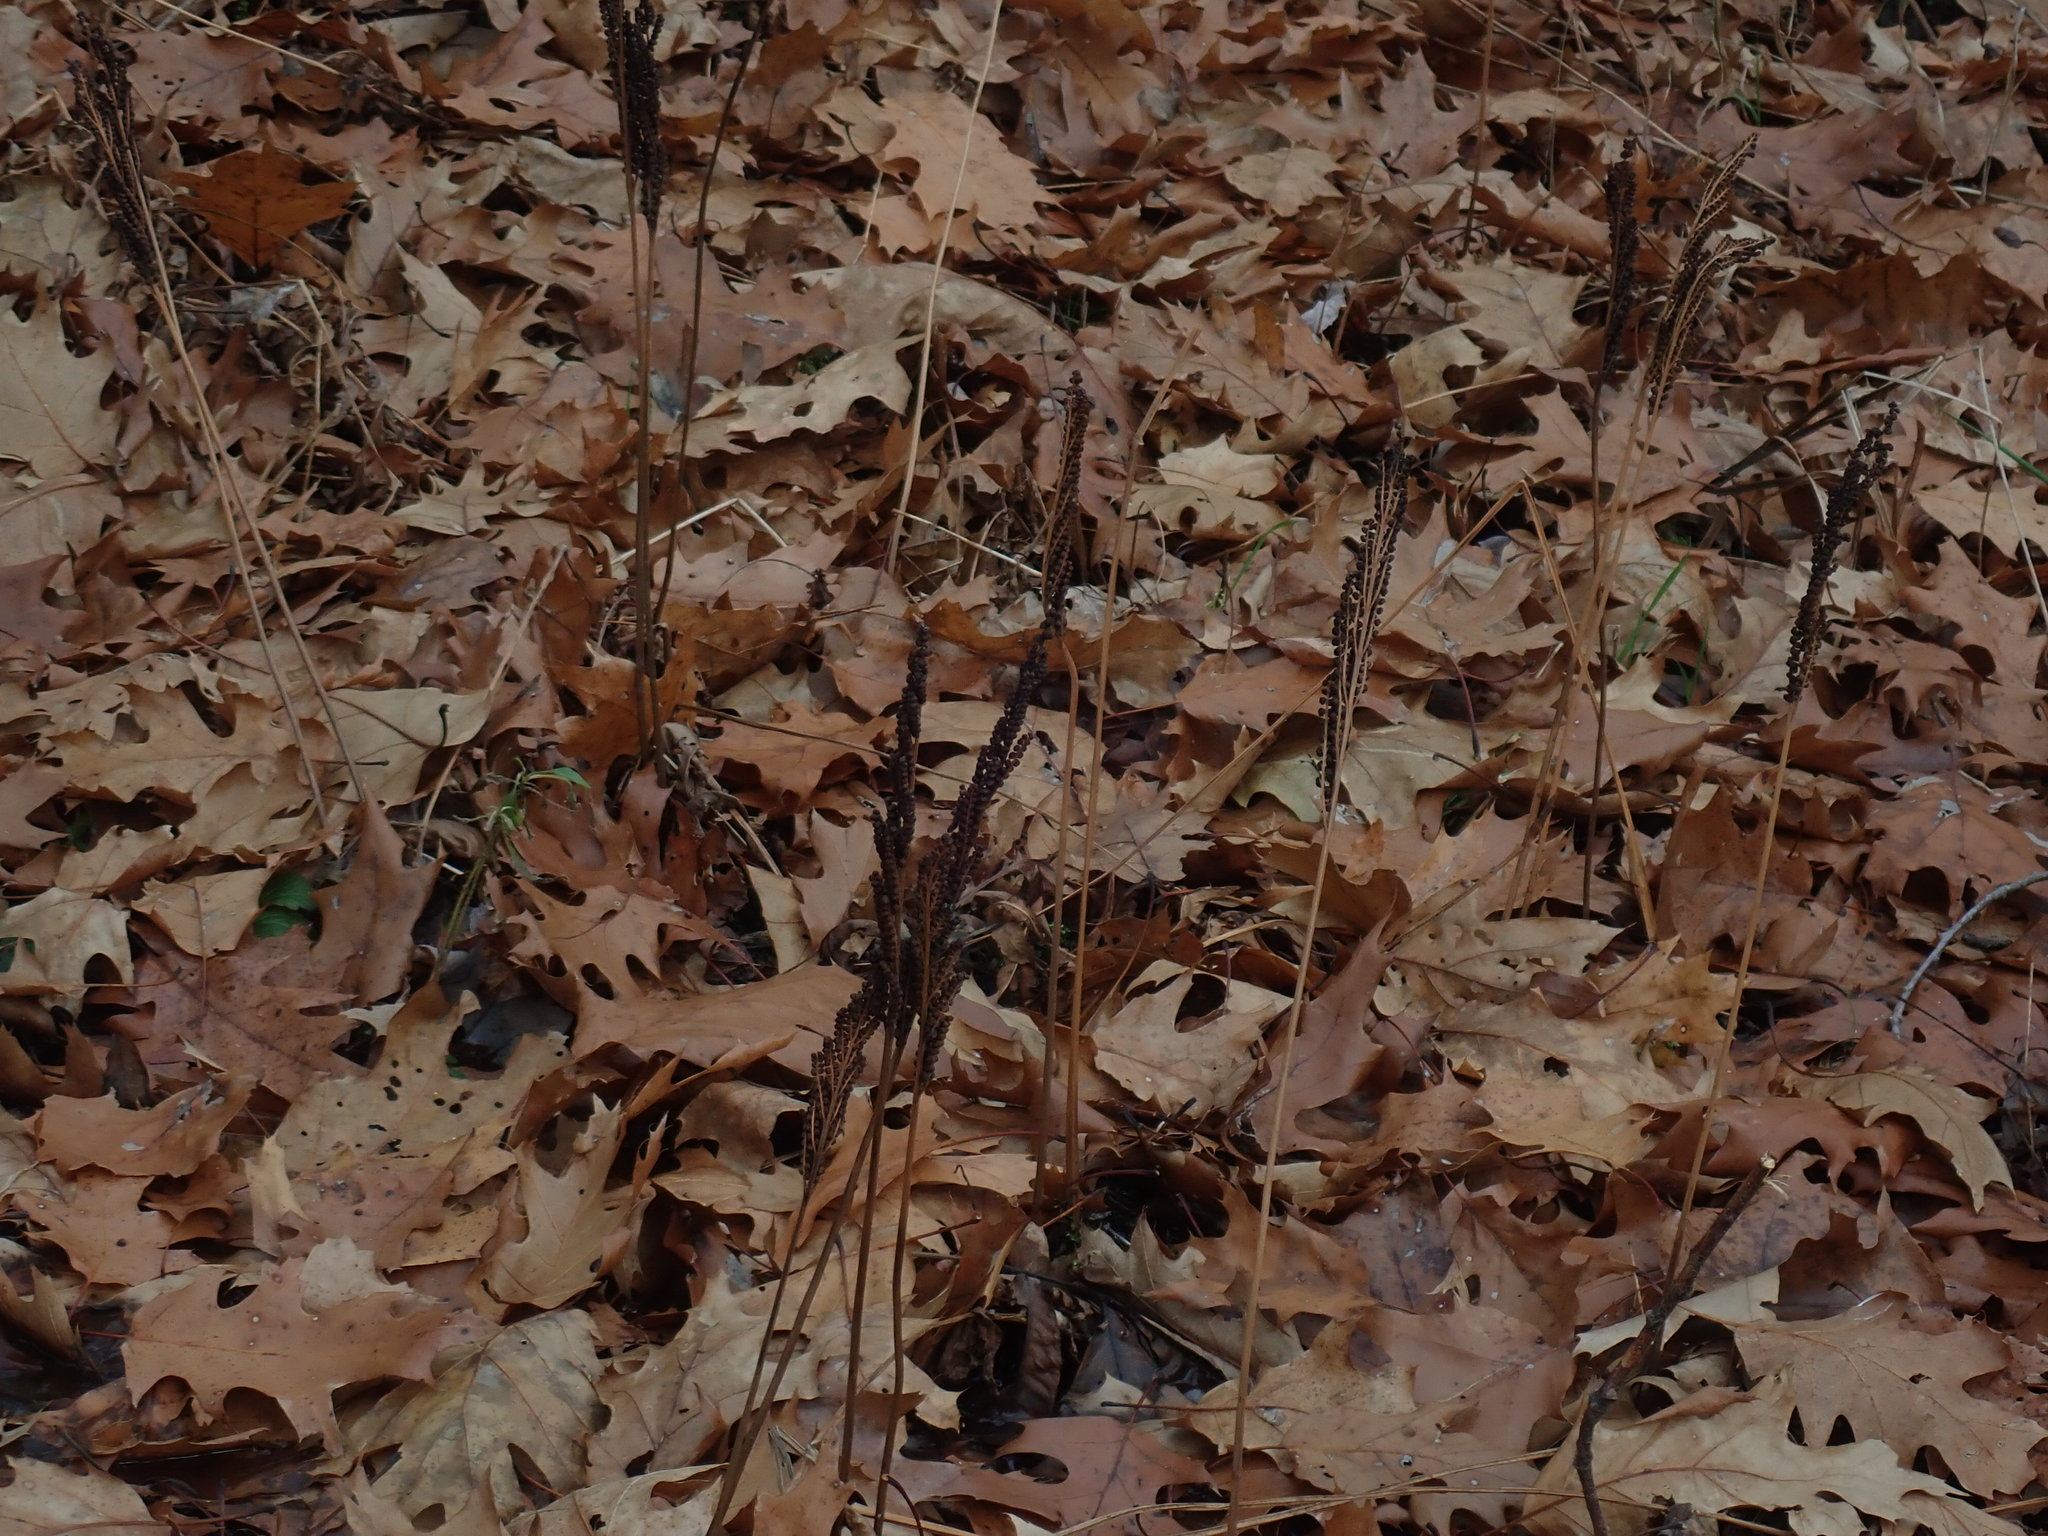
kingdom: Plantae
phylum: Tracheophyta
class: Polypodiopsida
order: Polypodiales
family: Onocleaceae
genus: Onoclea
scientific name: Onoclea sensibilis
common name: Sensitive fern
